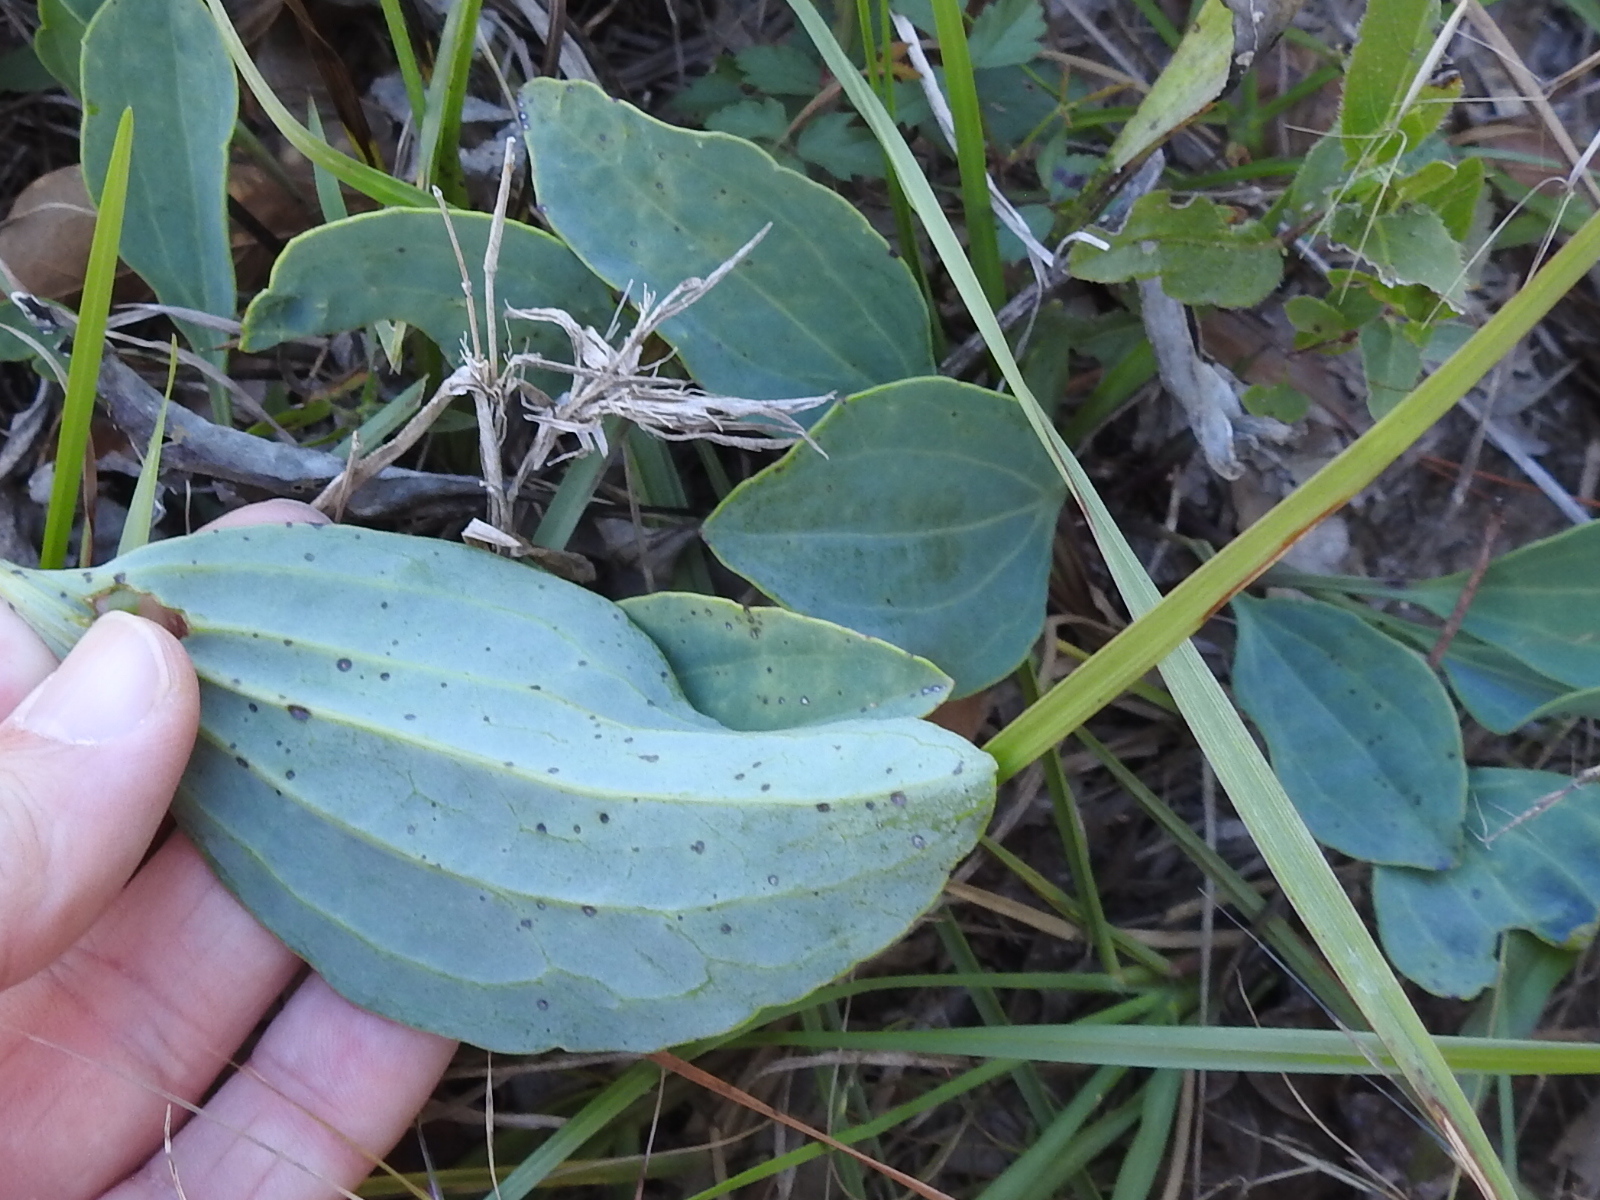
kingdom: Plantae
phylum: Tracheophyta
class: Magnoliopsida
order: Asterales
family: Asteraceae
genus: Arnoglossum
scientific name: Arnoglossum ovatum
